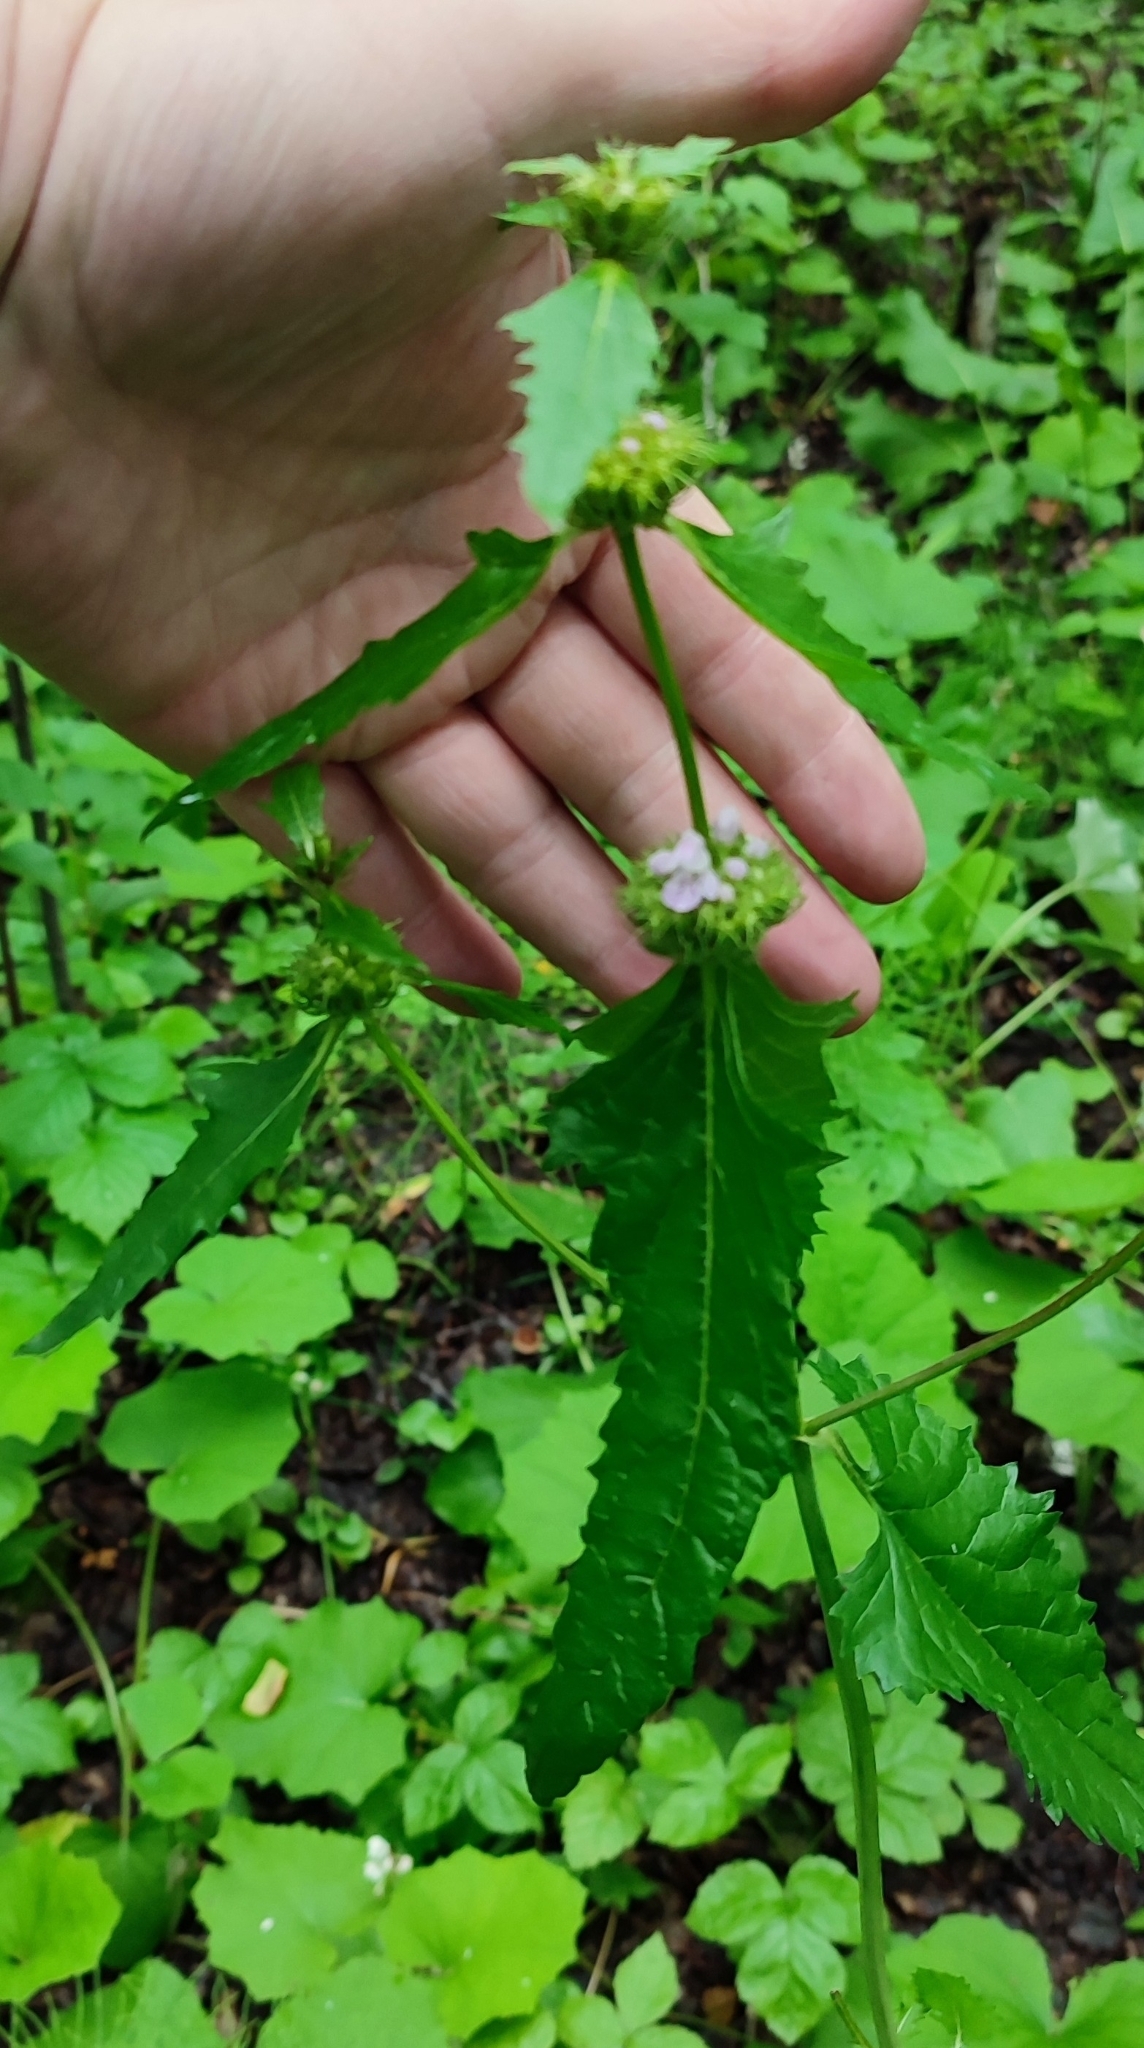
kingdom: Plantae
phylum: Tracheophyta
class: Magnoliopsida
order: Lamiales
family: Lamiaceae
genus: Phlomoides
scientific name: Phlomoides tuberosa
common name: Tuberous jerusalem sage
